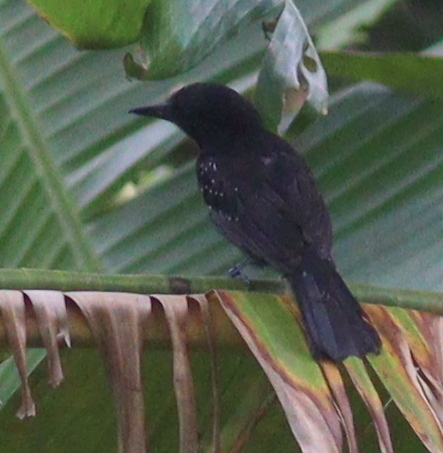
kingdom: Animalia
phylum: Chordata
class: Aves
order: Passeriformes
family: Thamnophilidae
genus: Thamnophilus
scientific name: Thamnophilus bridgesi
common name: Black-hooded antshrike
